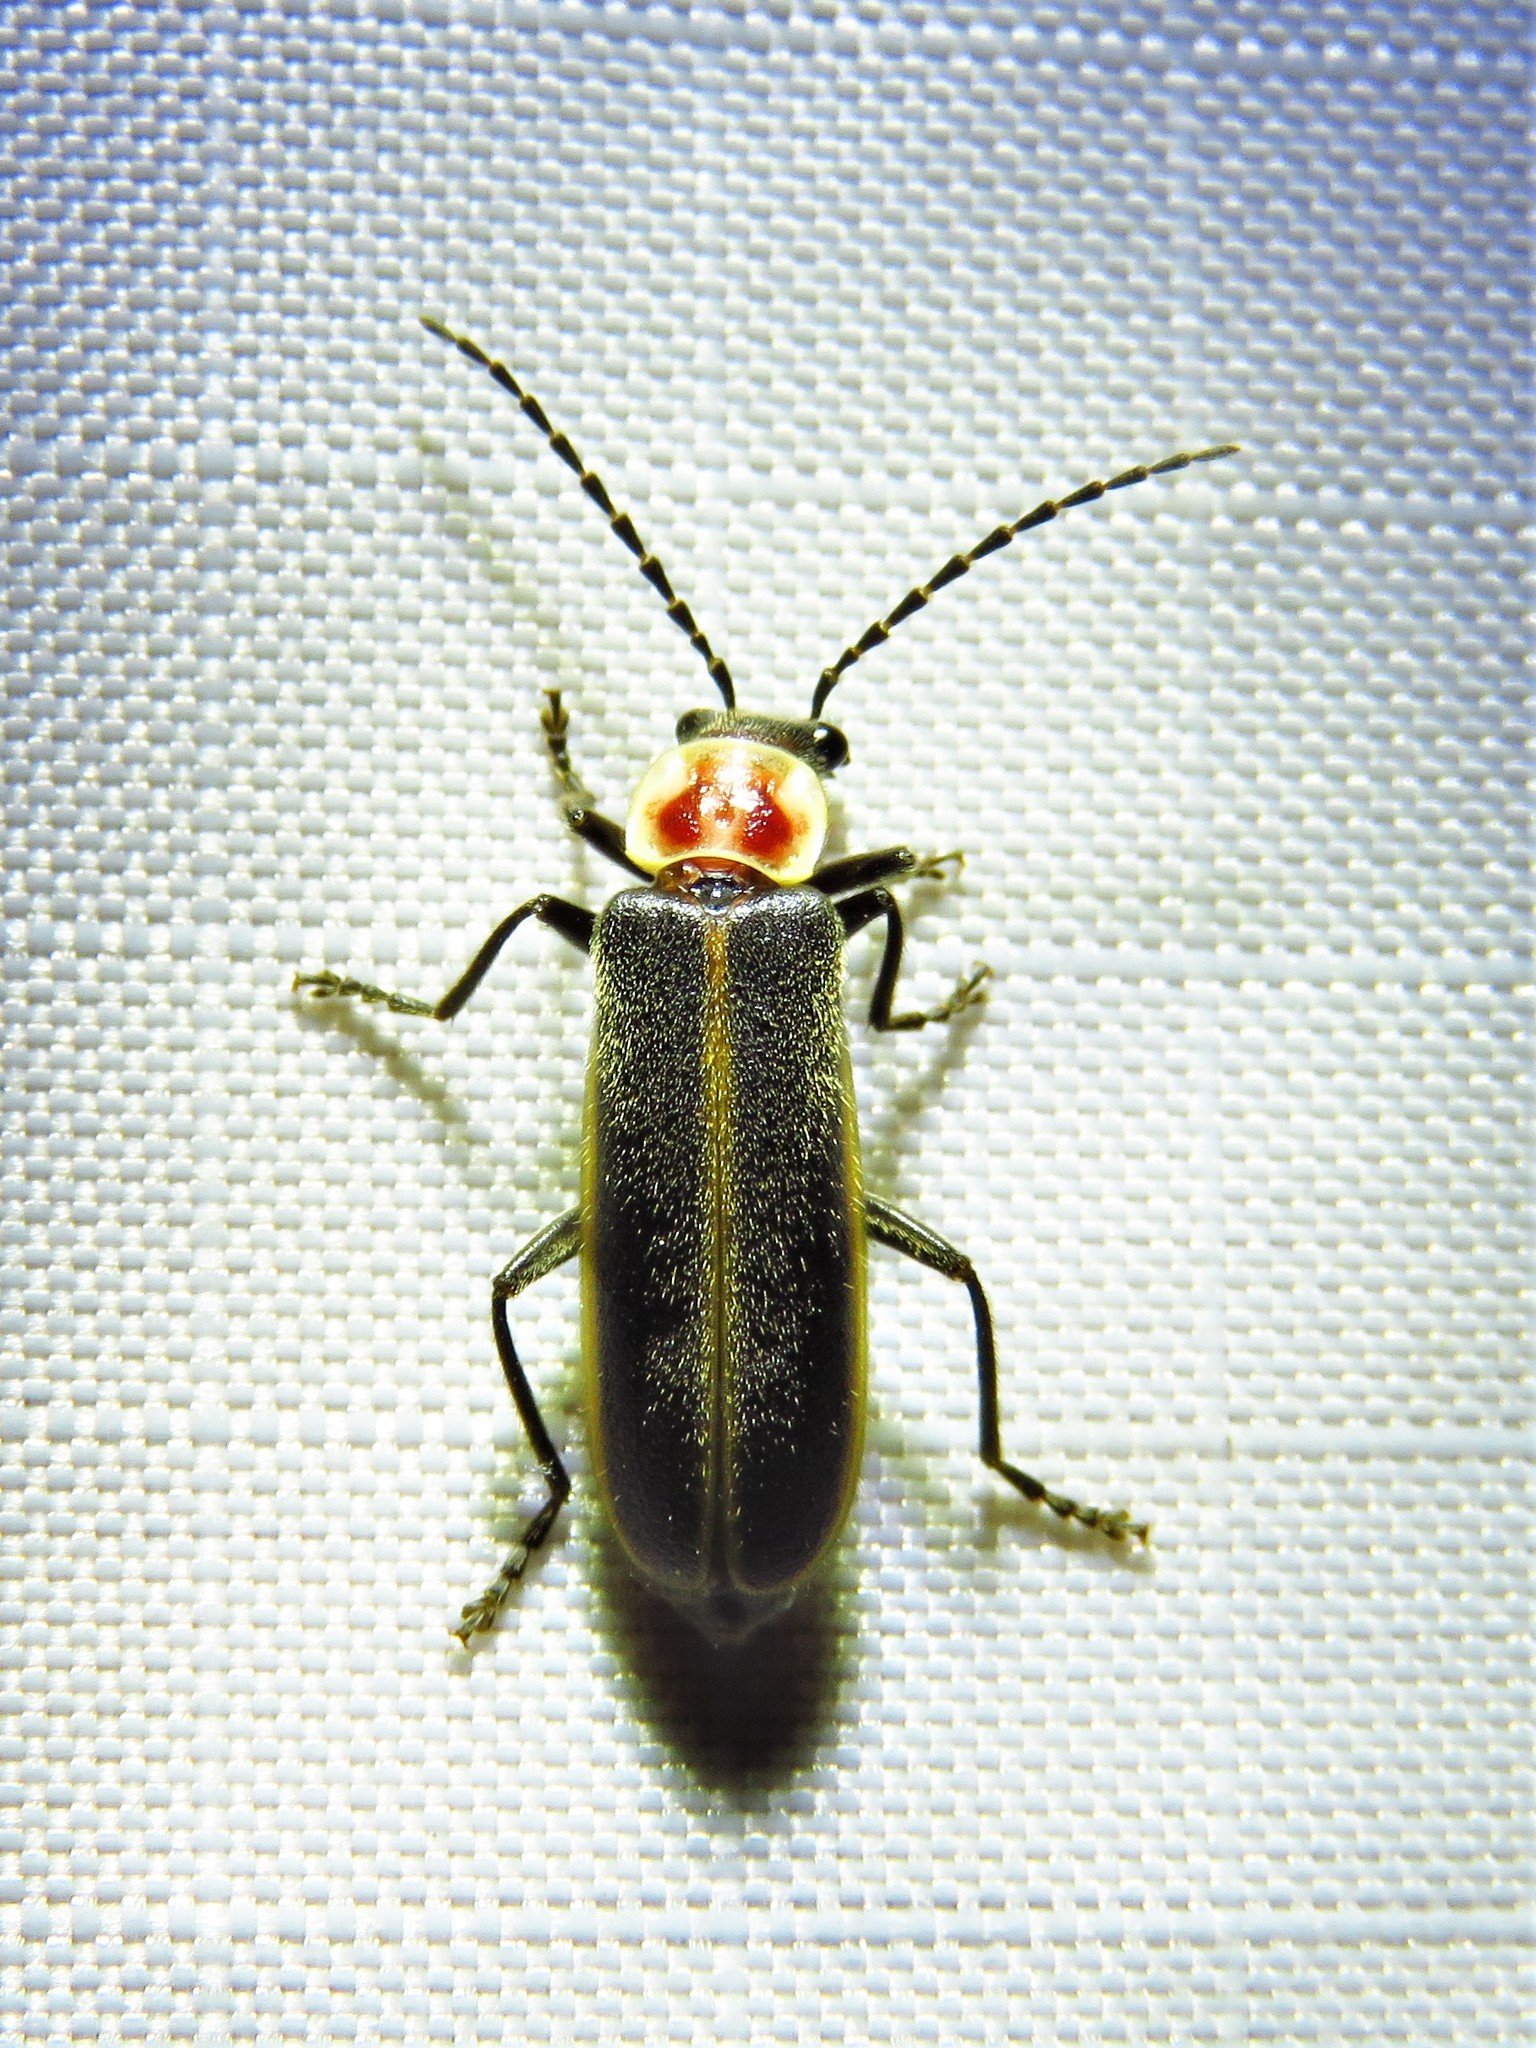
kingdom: Animalia
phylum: Arthropoda
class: Insecta
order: Coleoptera
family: Cantharidae
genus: Podabrus
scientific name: Podabrus knobeli
